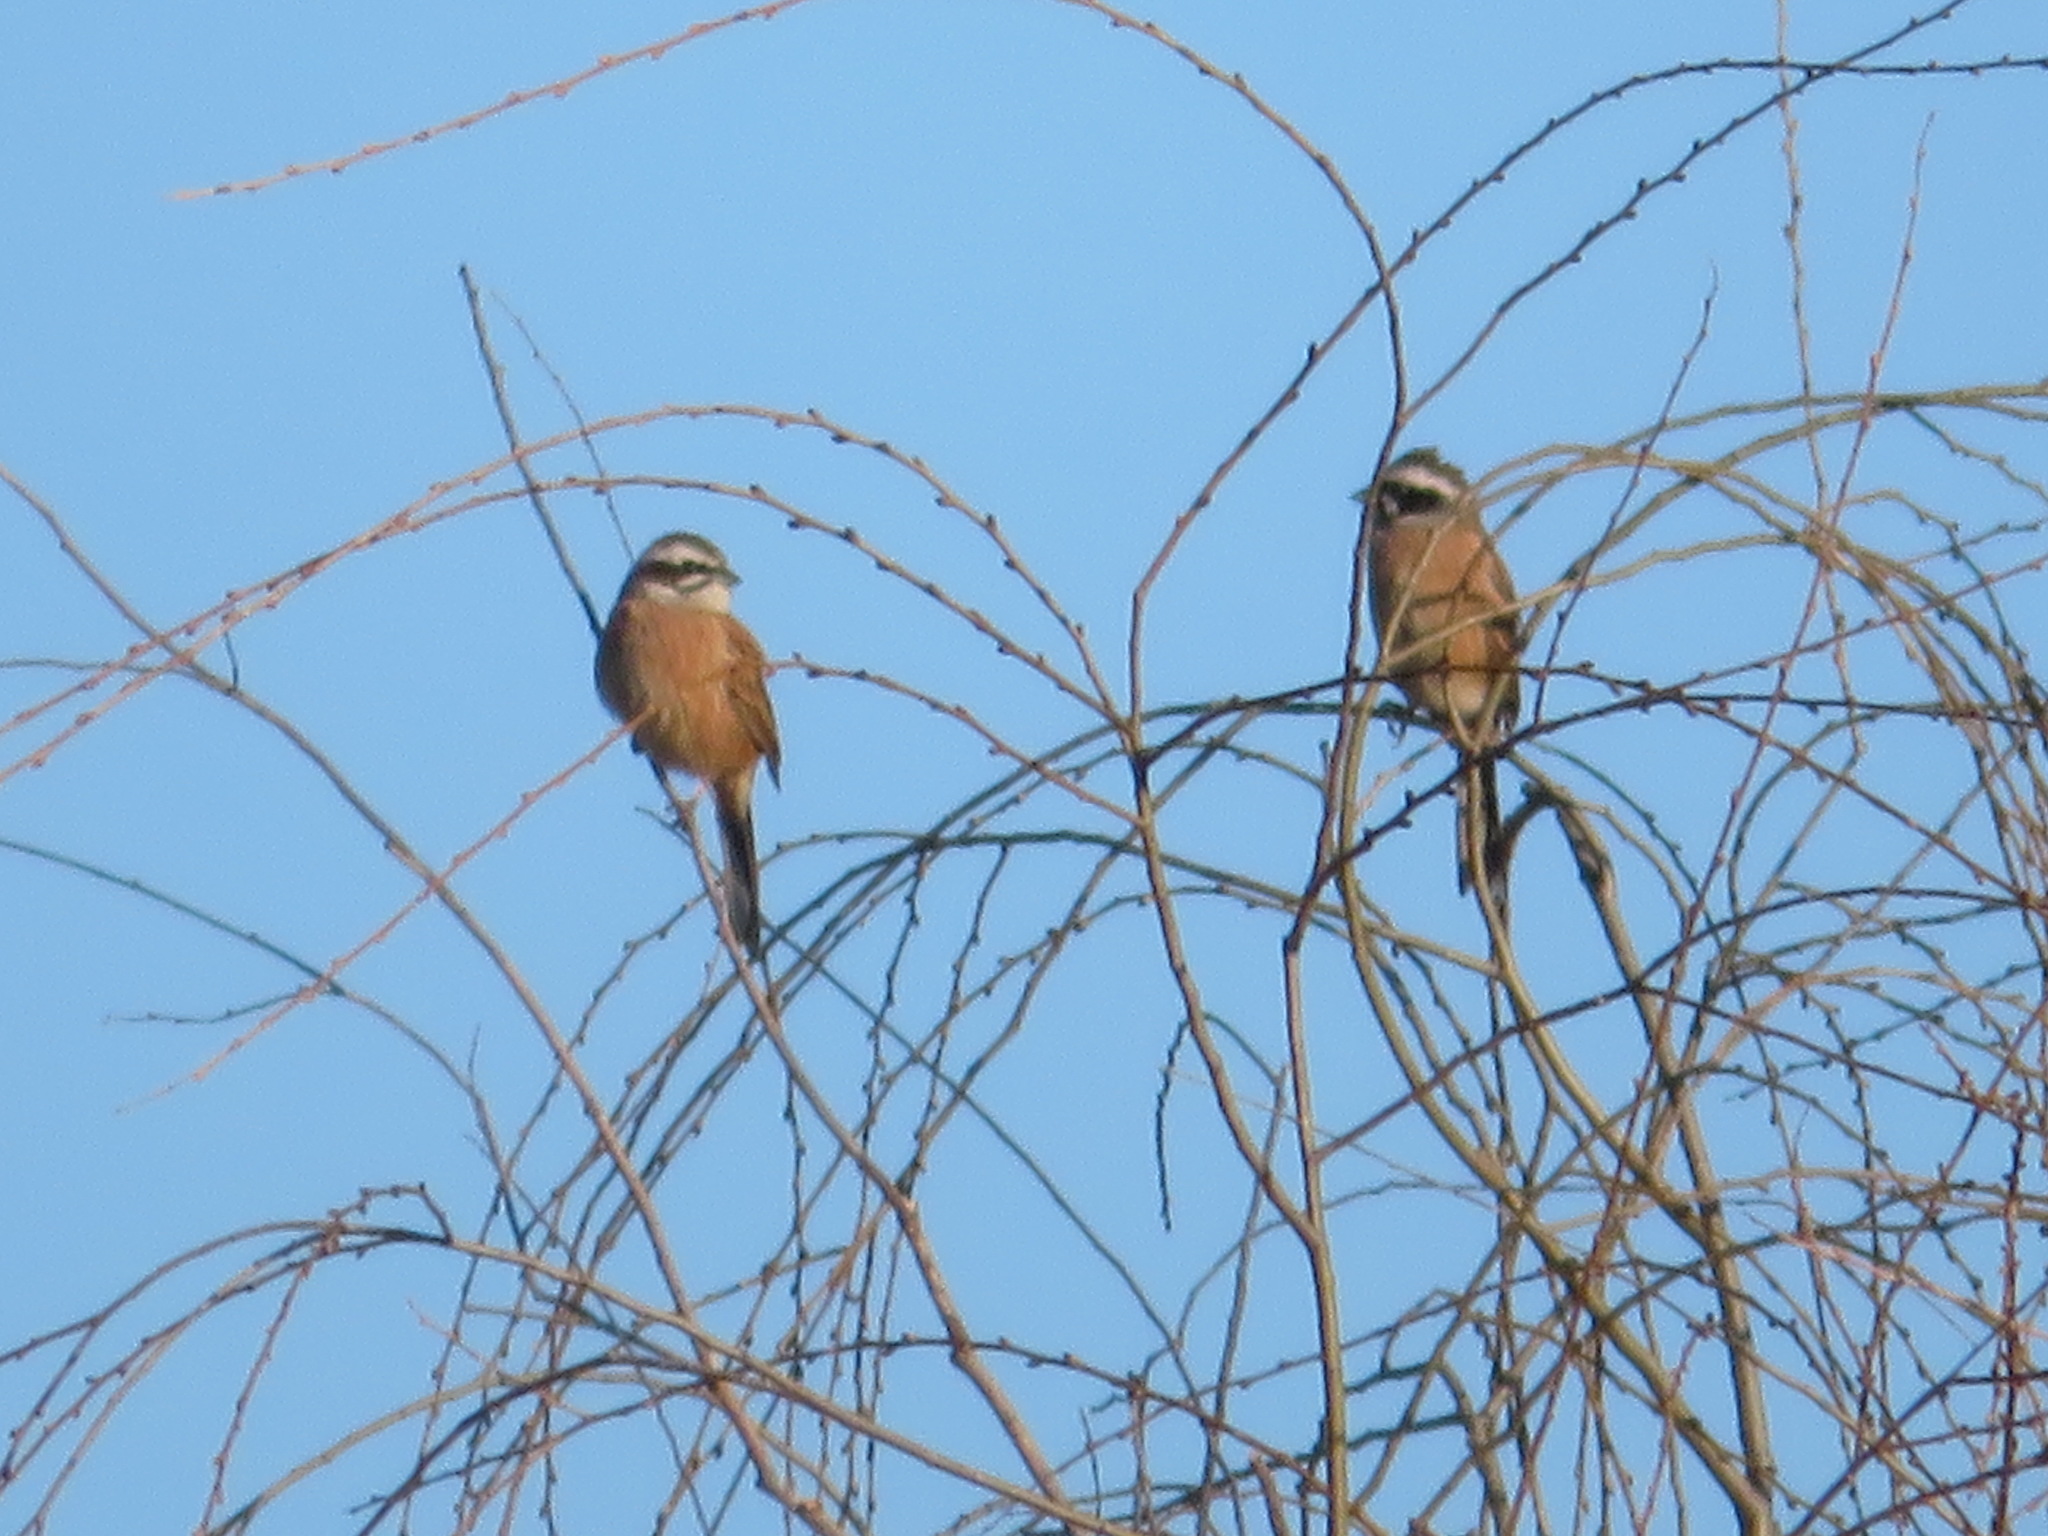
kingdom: Animalia
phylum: Chordata
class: Aves
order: Passeriformes
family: Emberizidae
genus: Emberiza
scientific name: Emberiza cioides
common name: Meadow bunting
